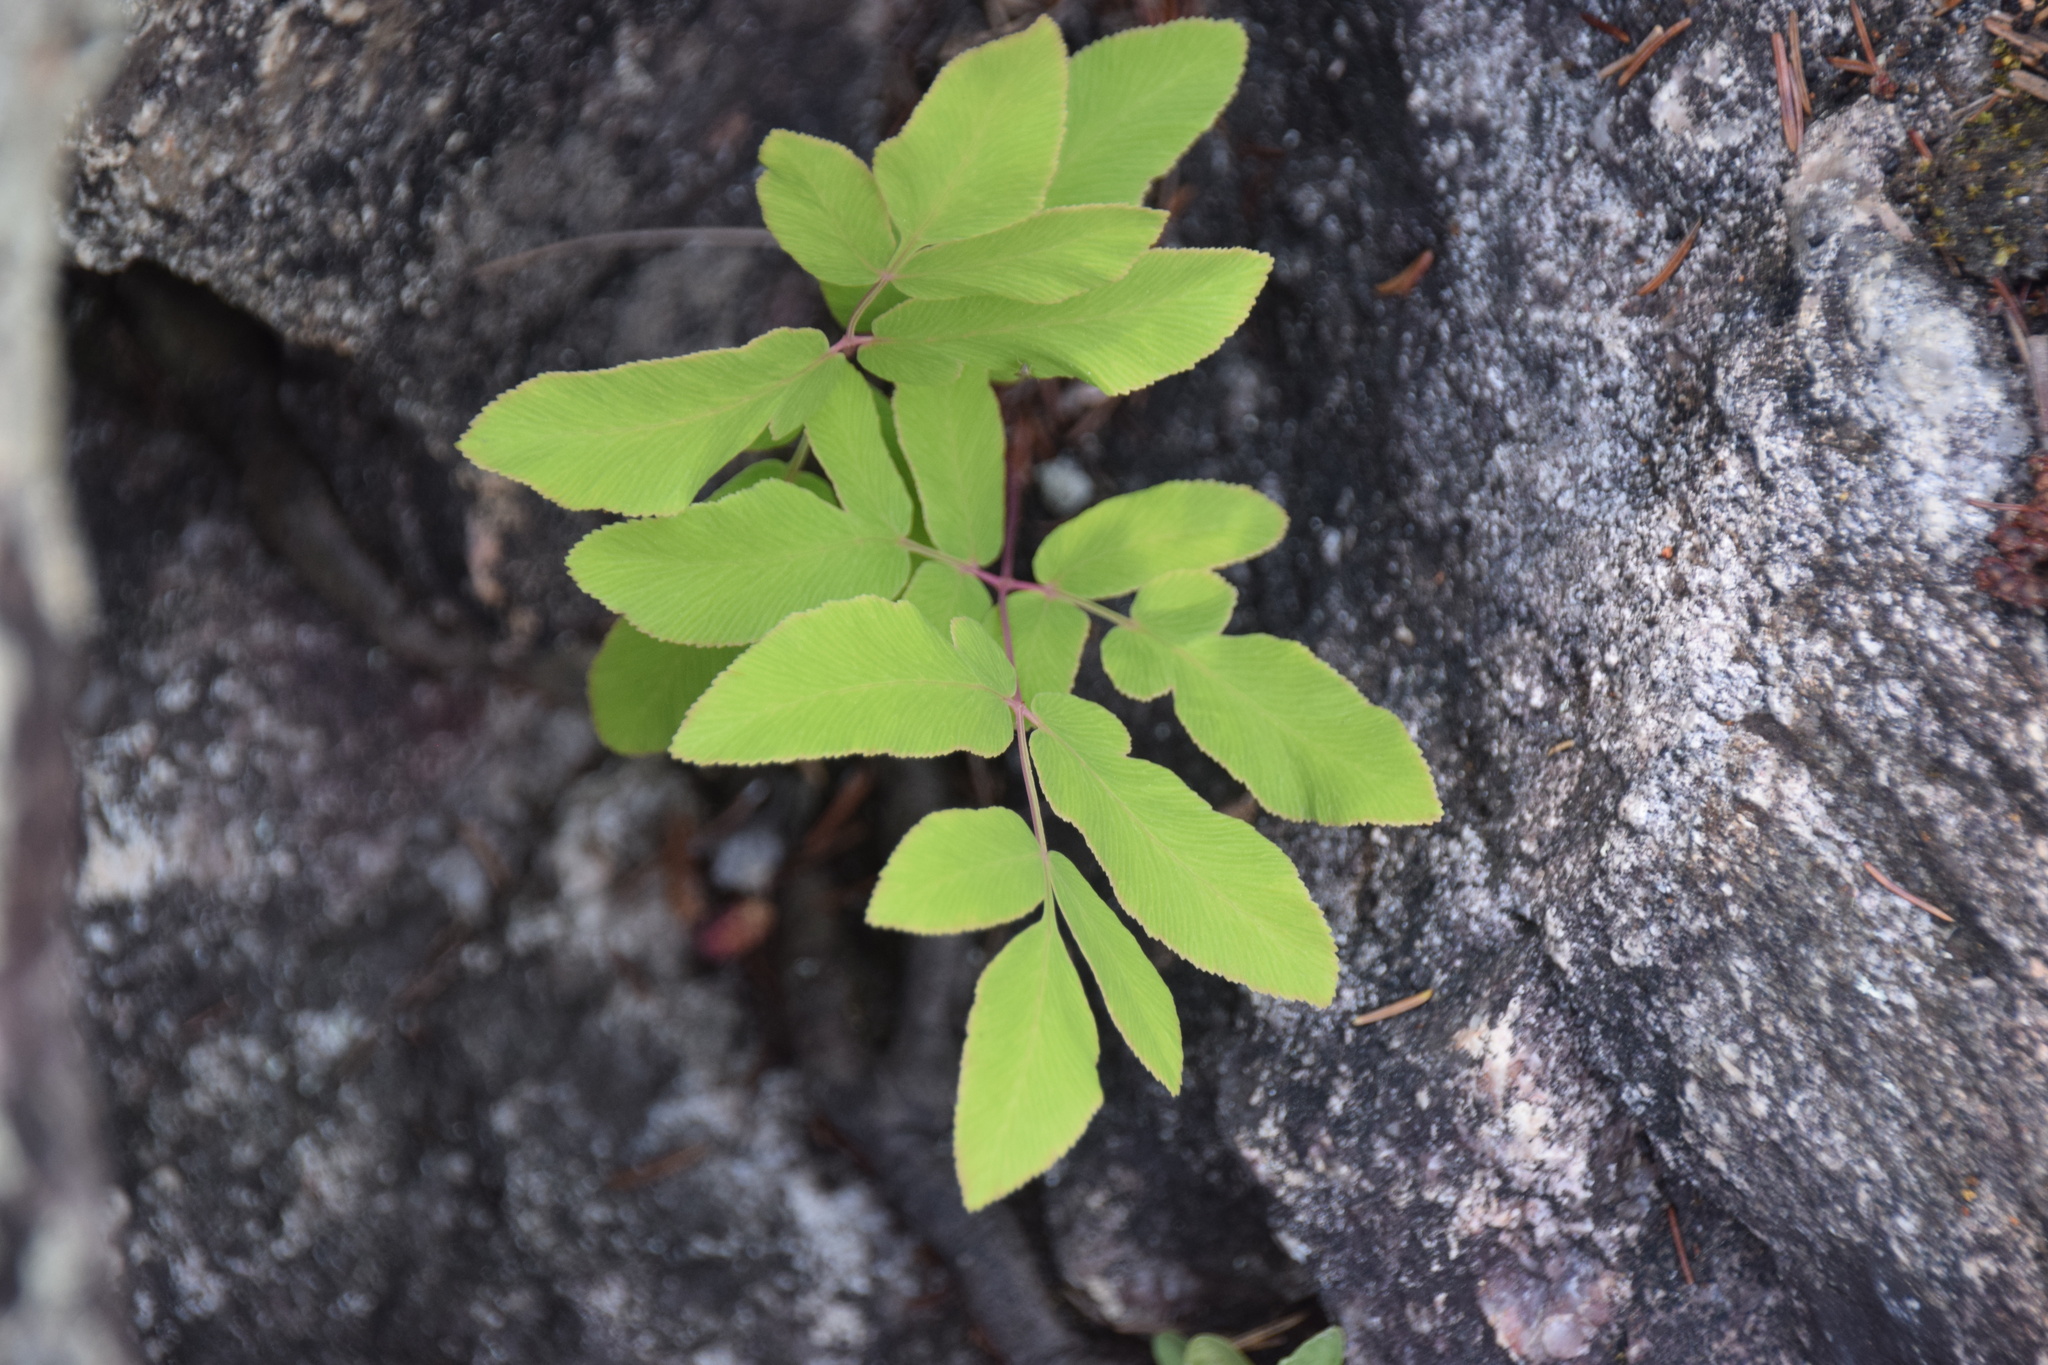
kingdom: Plantae
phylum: Tracheophyta
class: Polypodiopsida
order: Osmundales
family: Osmundaceae
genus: Osmunda
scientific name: Osmunda spectabilis
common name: American royal fern
